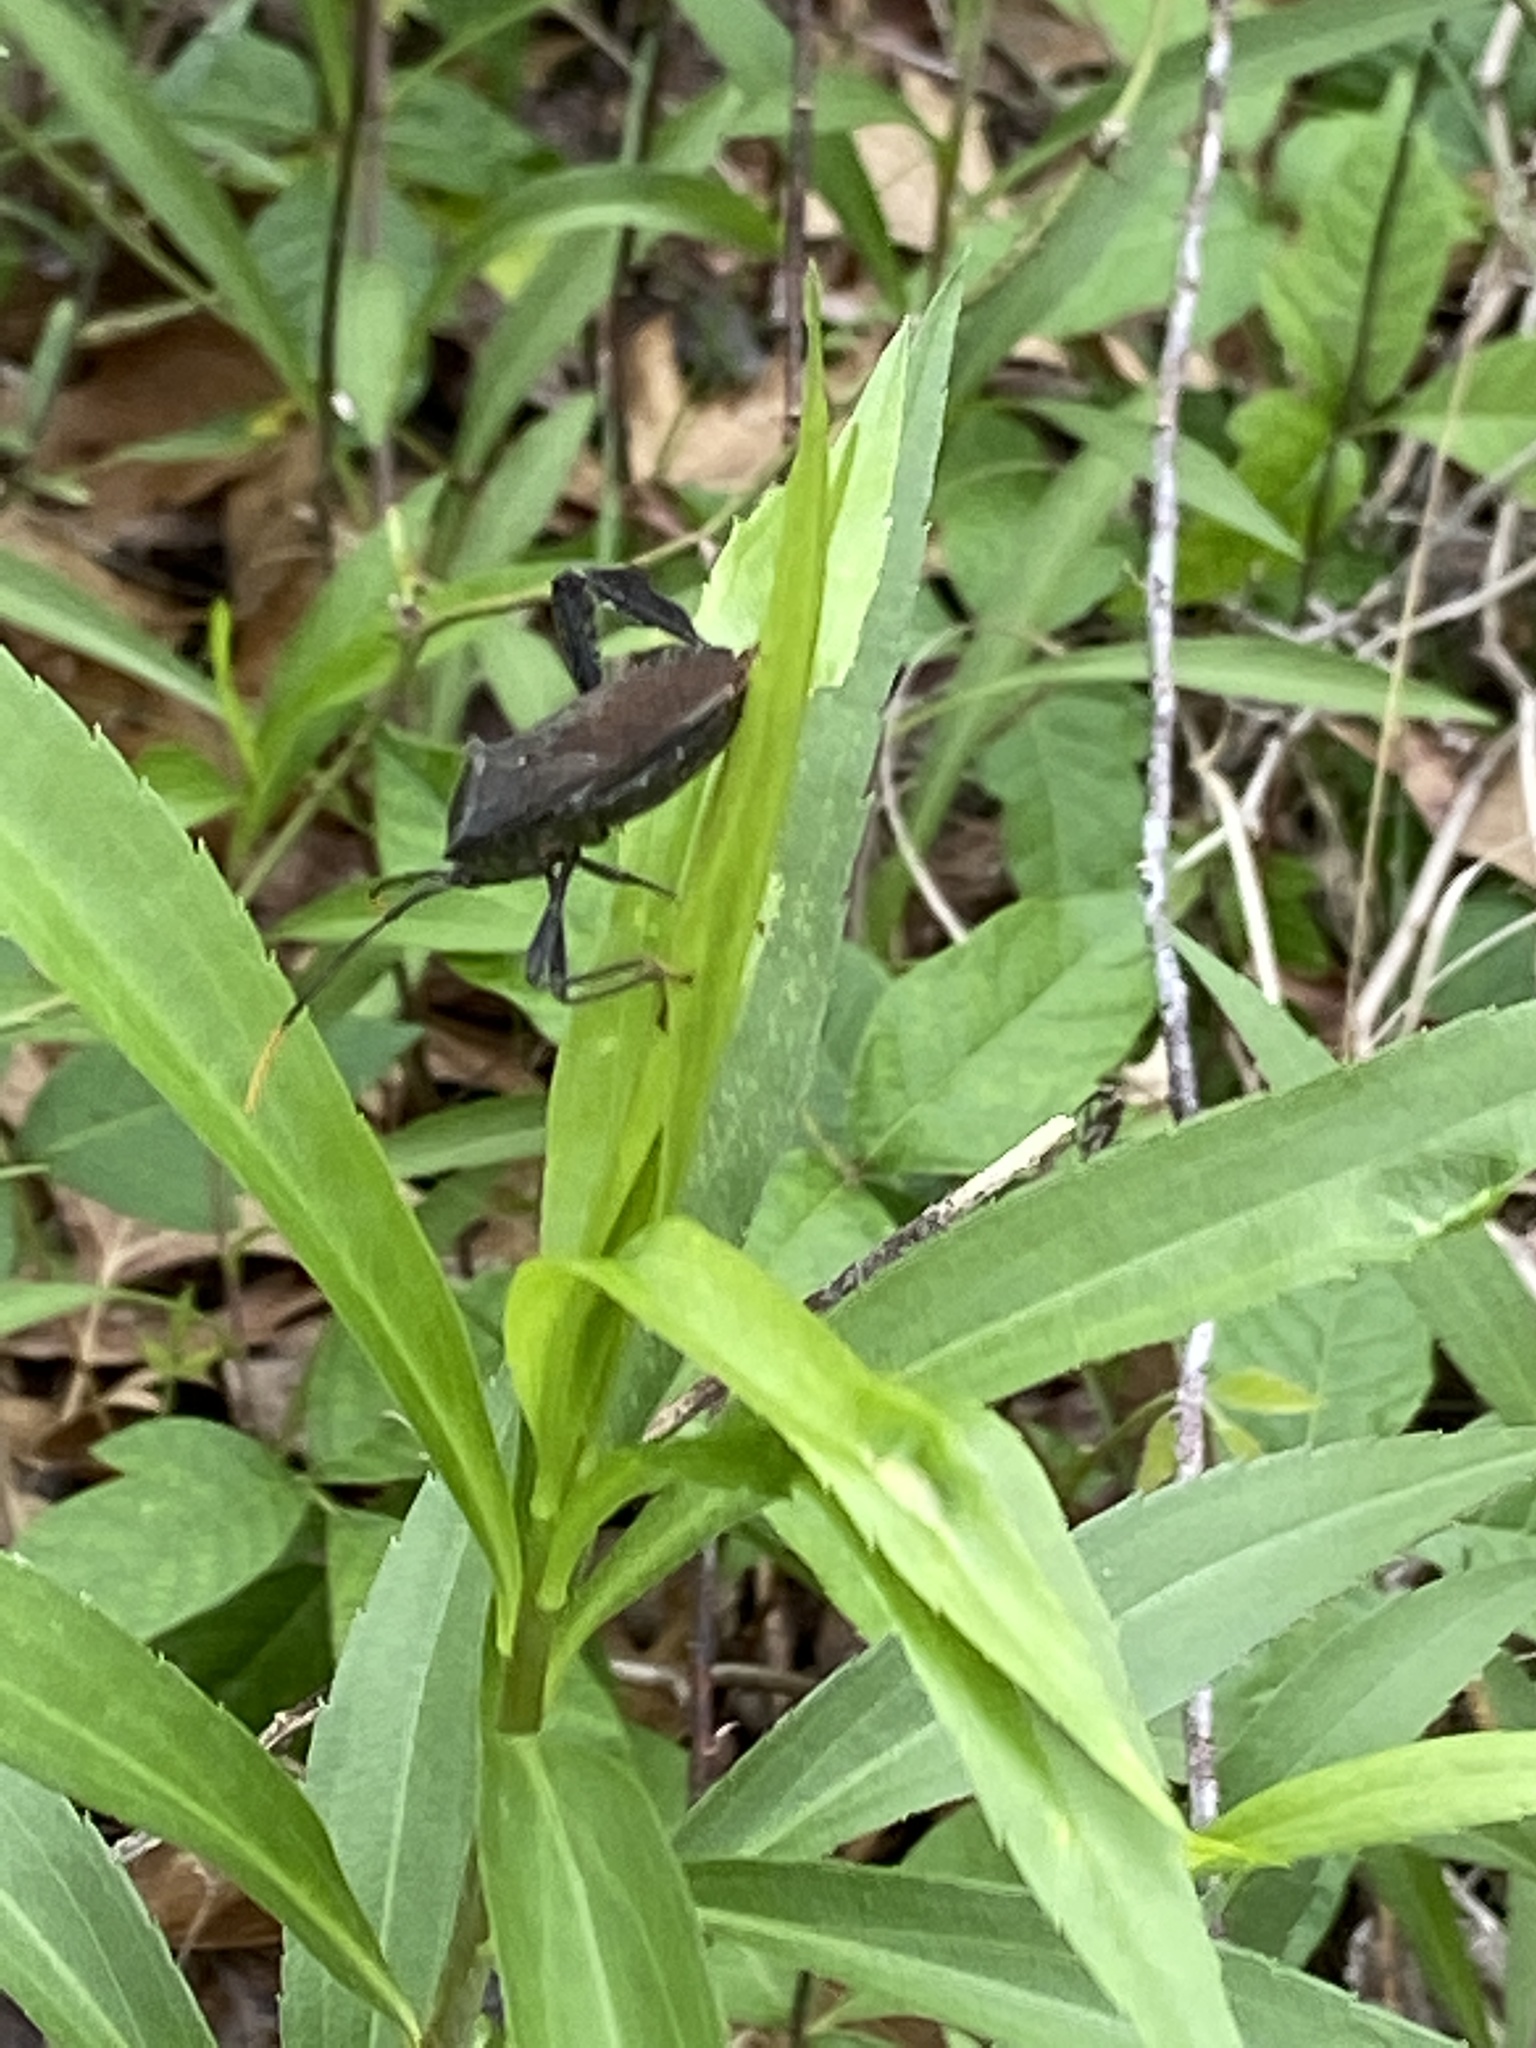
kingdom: Animalia
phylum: Arthropoda
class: Insecta
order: Hemiptera
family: Coreidae
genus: Acanthocephala
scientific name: Acanthocephala terminalis
